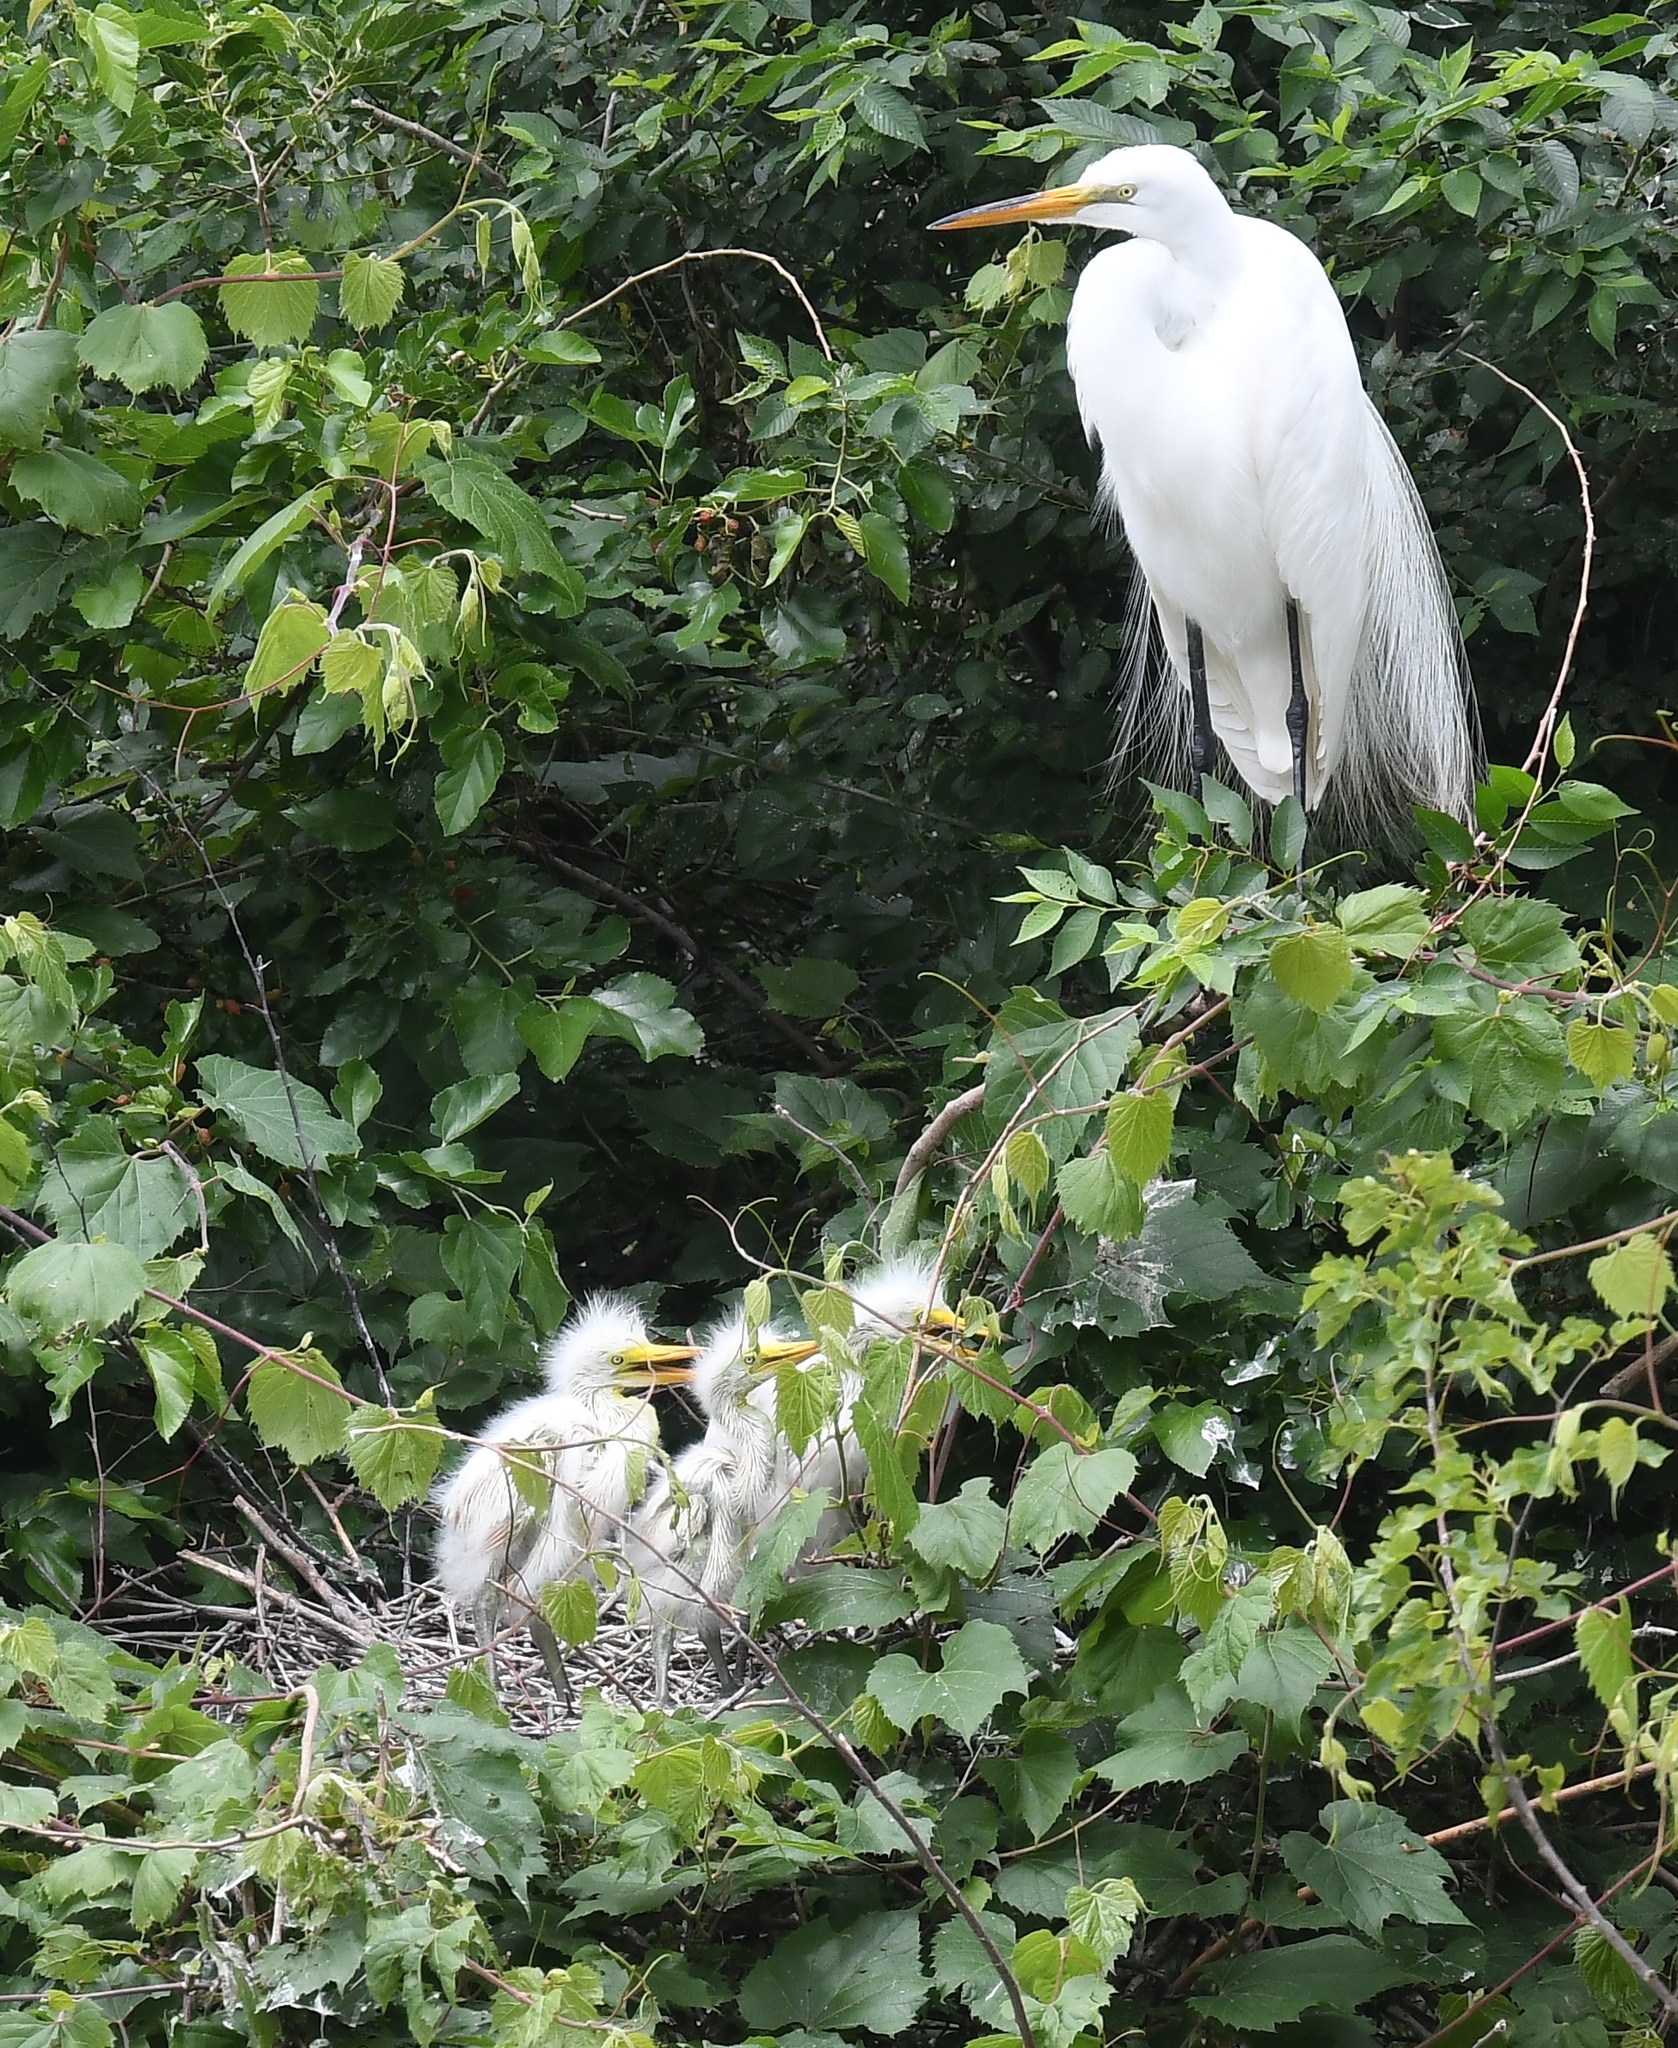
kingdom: Animalia
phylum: Chordata
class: Aves
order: Pelecaniformes
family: Ardeidae
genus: Ardea
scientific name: Ardea alba
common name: Great egret
